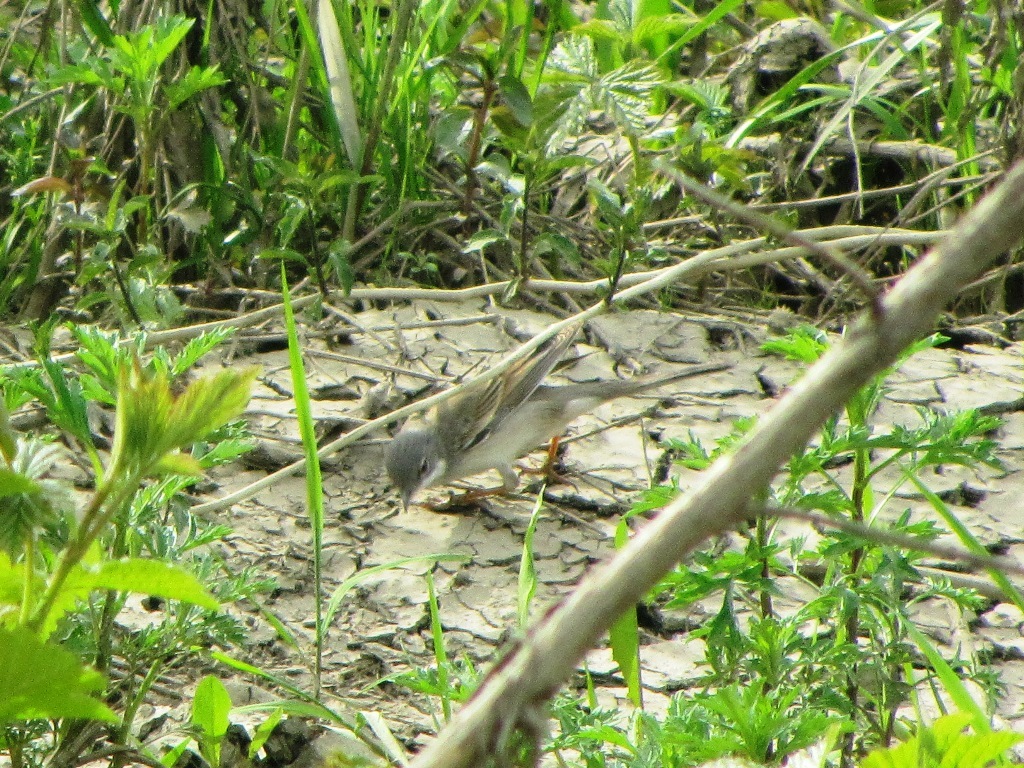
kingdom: Animalia
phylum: Chordata
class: Aves
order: Passeriformes
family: Sylviidae
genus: Sylvia
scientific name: Sylvia communis
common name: Common whitethroat
